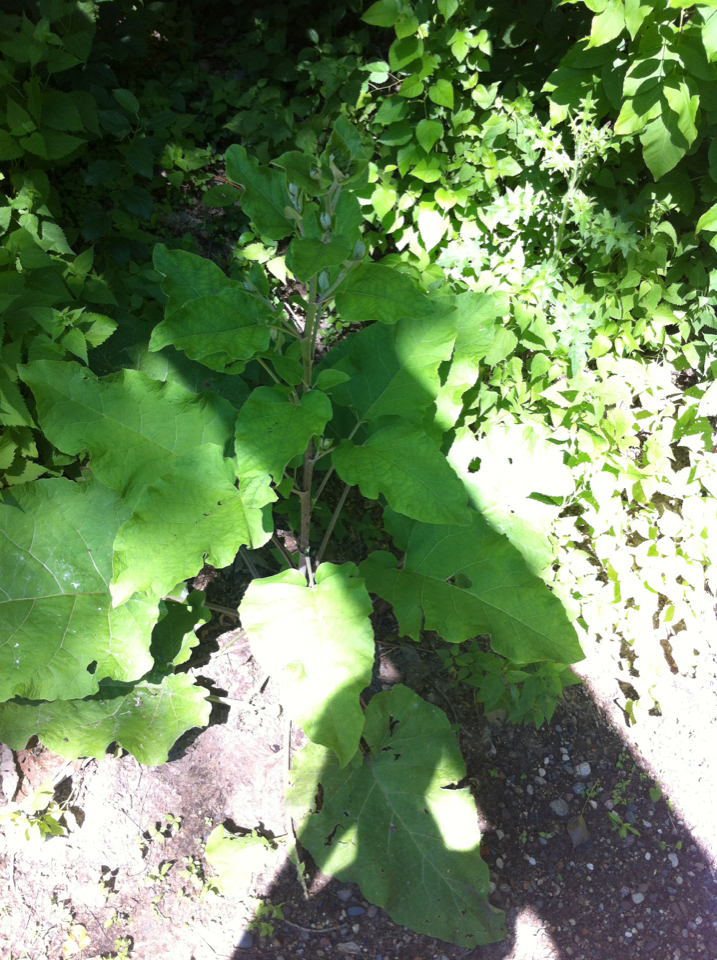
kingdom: Plantae
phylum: Tracheophyta
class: Magnoliopsida
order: Asterales
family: Asteraceae
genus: Arctium
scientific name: Arctium lappa
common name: Greater burdock
